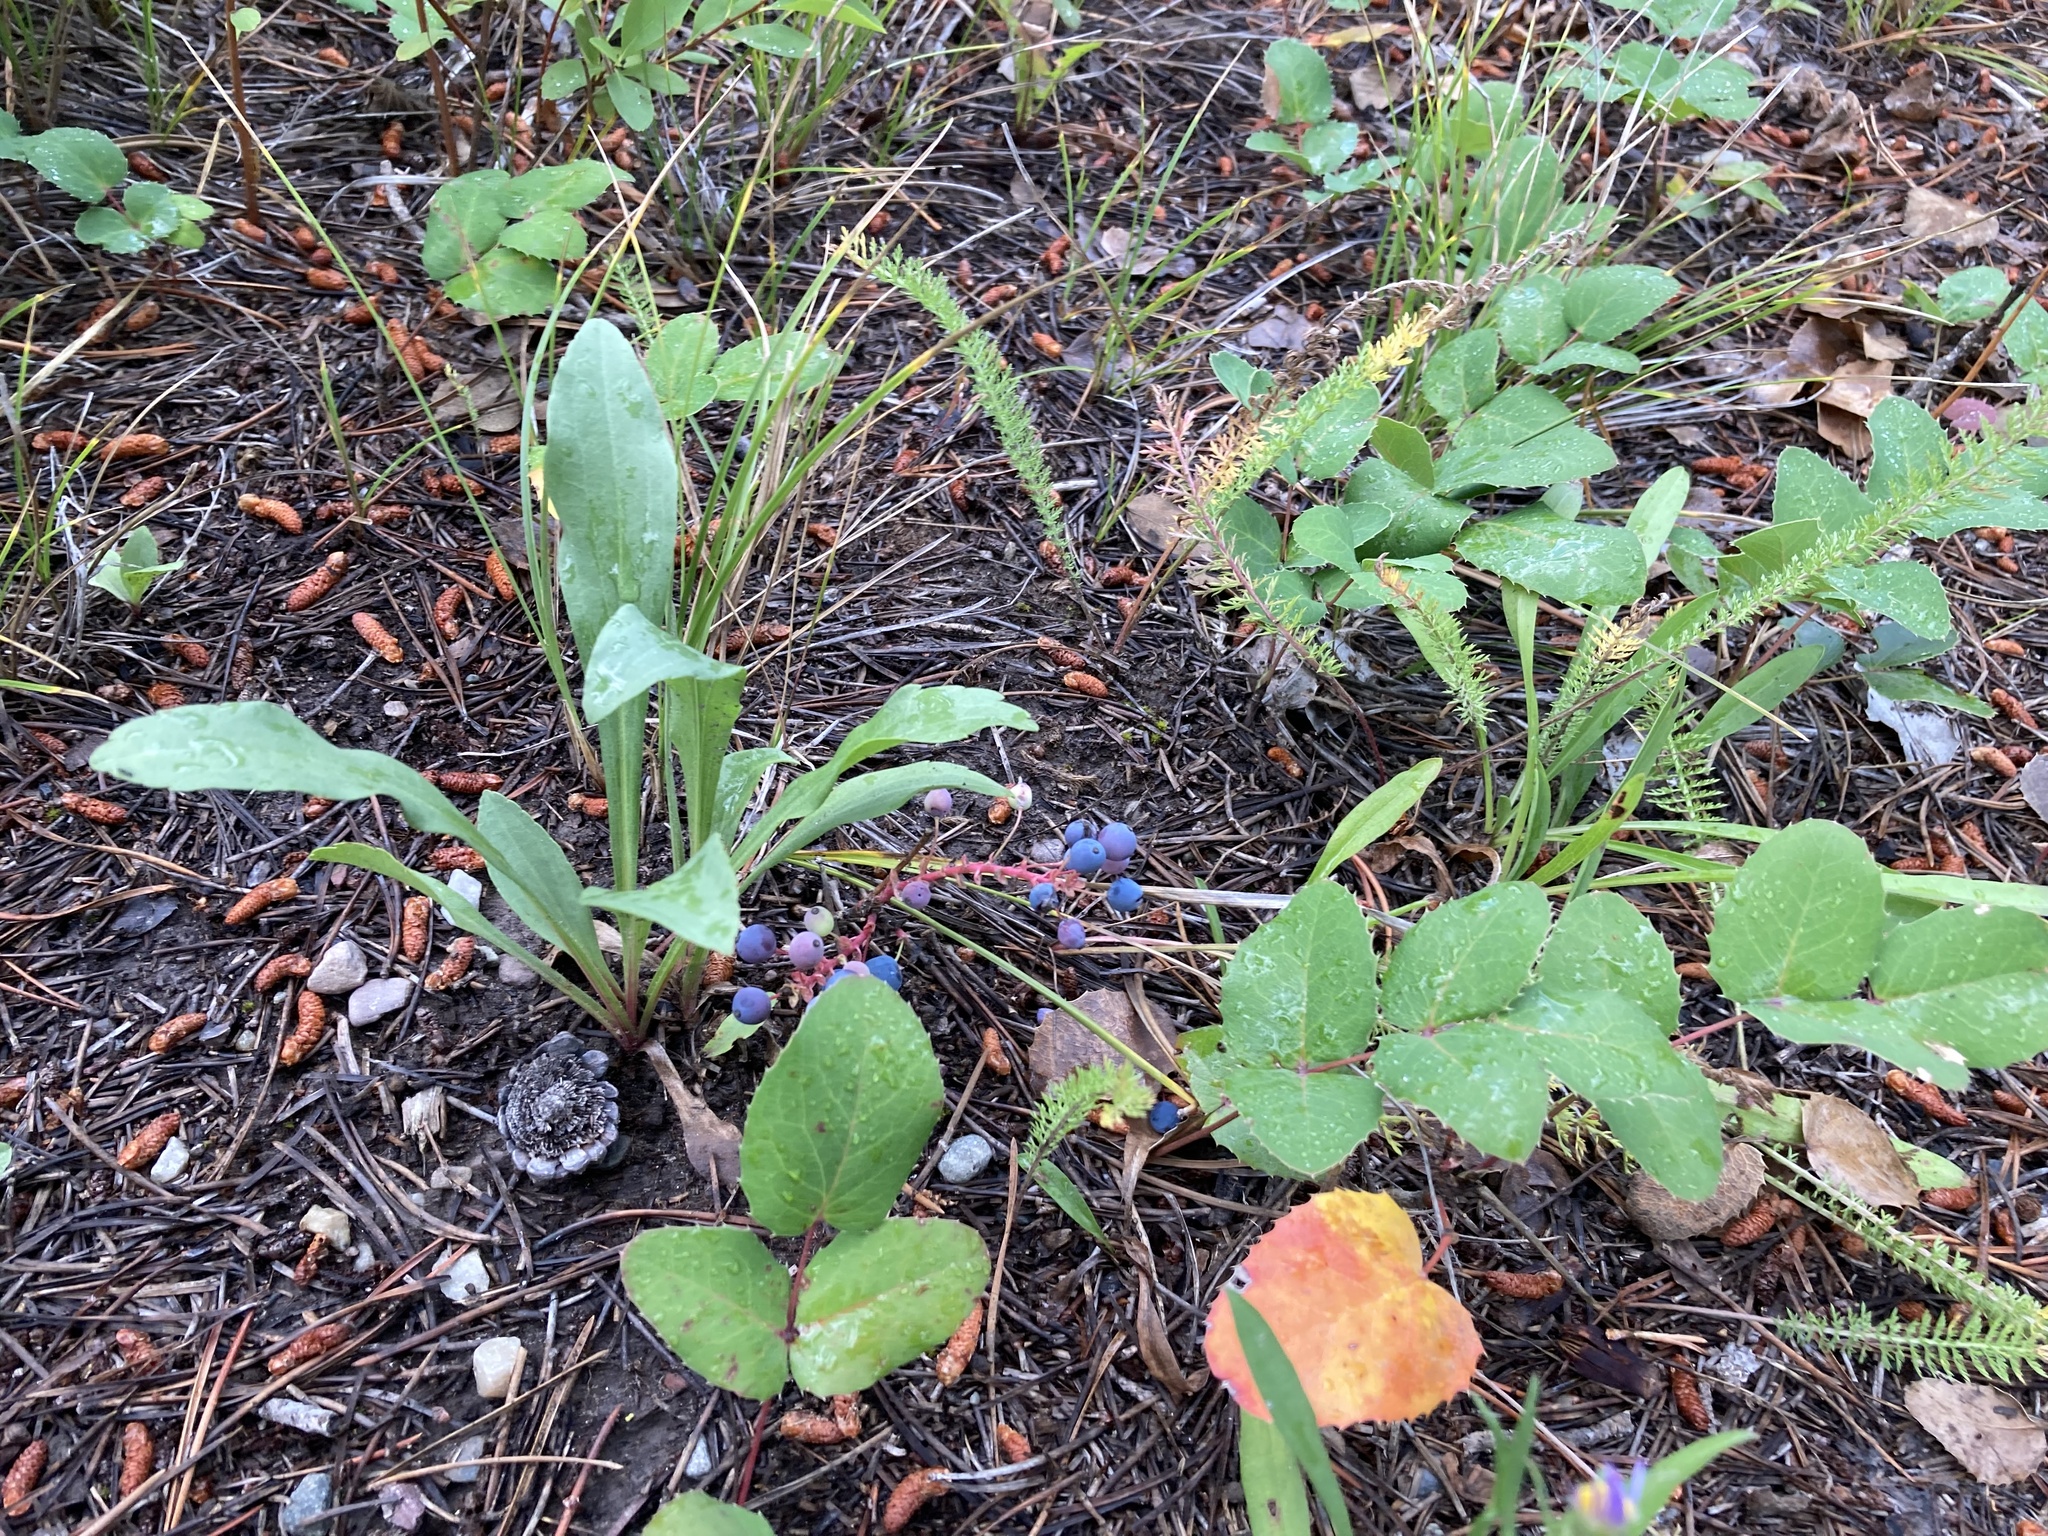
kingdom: Plantae
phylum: Tracheophyta
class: Magnoliopsida
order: Ranunculales
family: Berberidaceae
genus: Mahonia
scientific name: Mahonia repens
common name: Creeping oregon-grape
